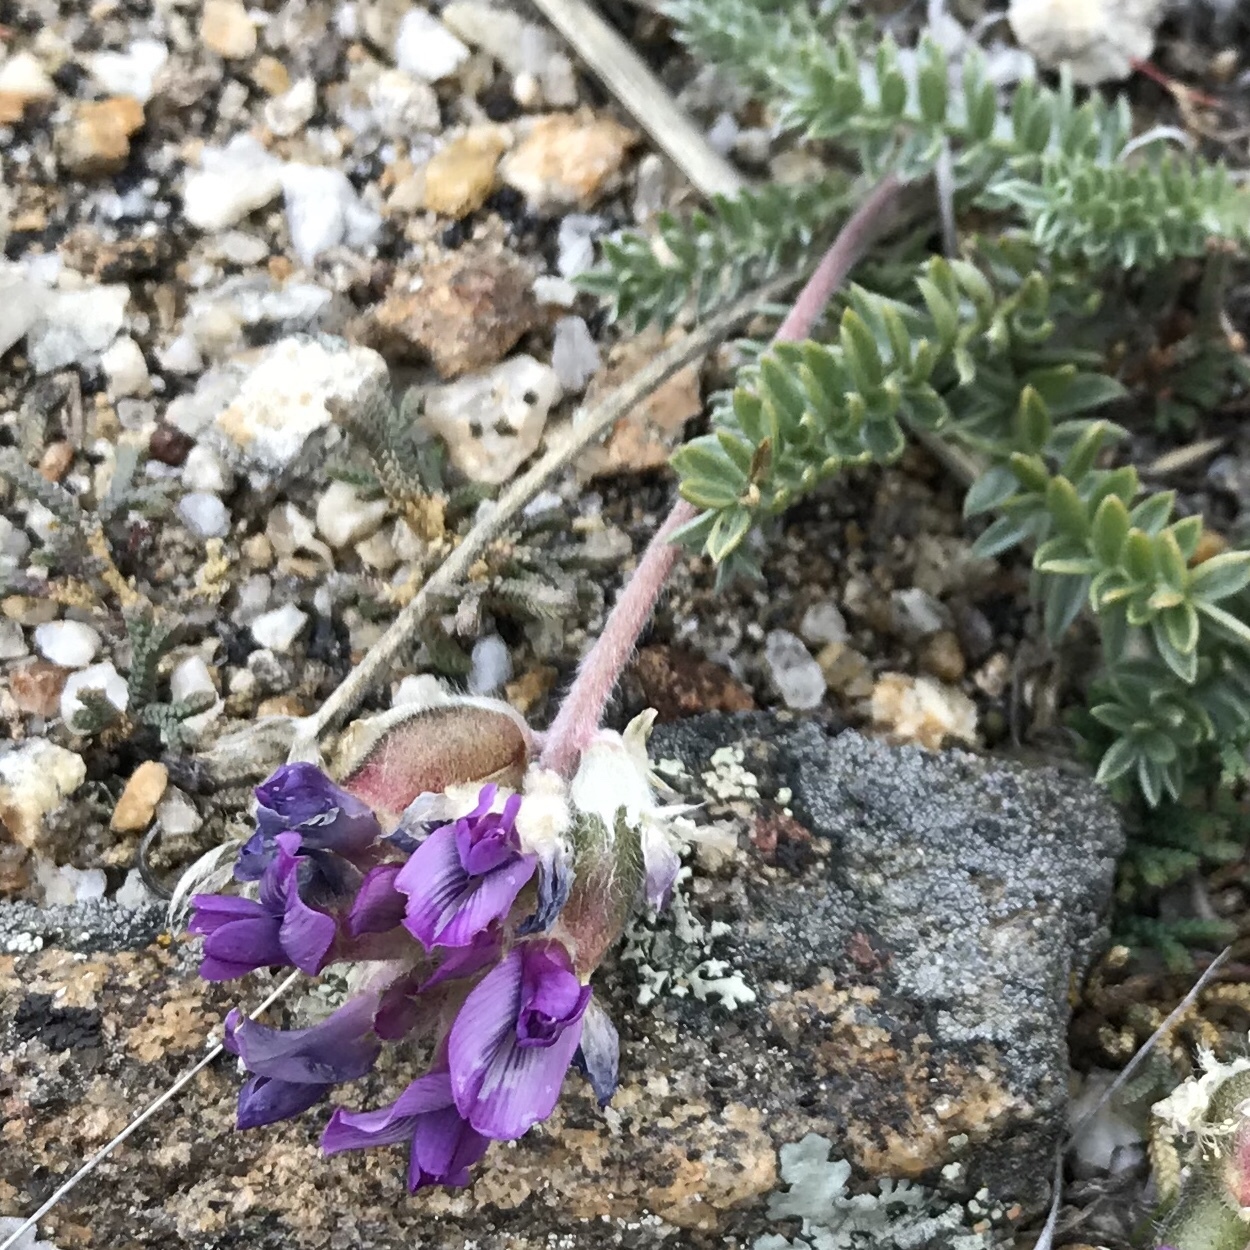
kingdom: Plantae
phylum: Tracheophyta
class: Magnoliopsida
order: Fabales
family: Fabaceae
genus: Oxytropis
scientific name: Oxytropis turczaninovii
